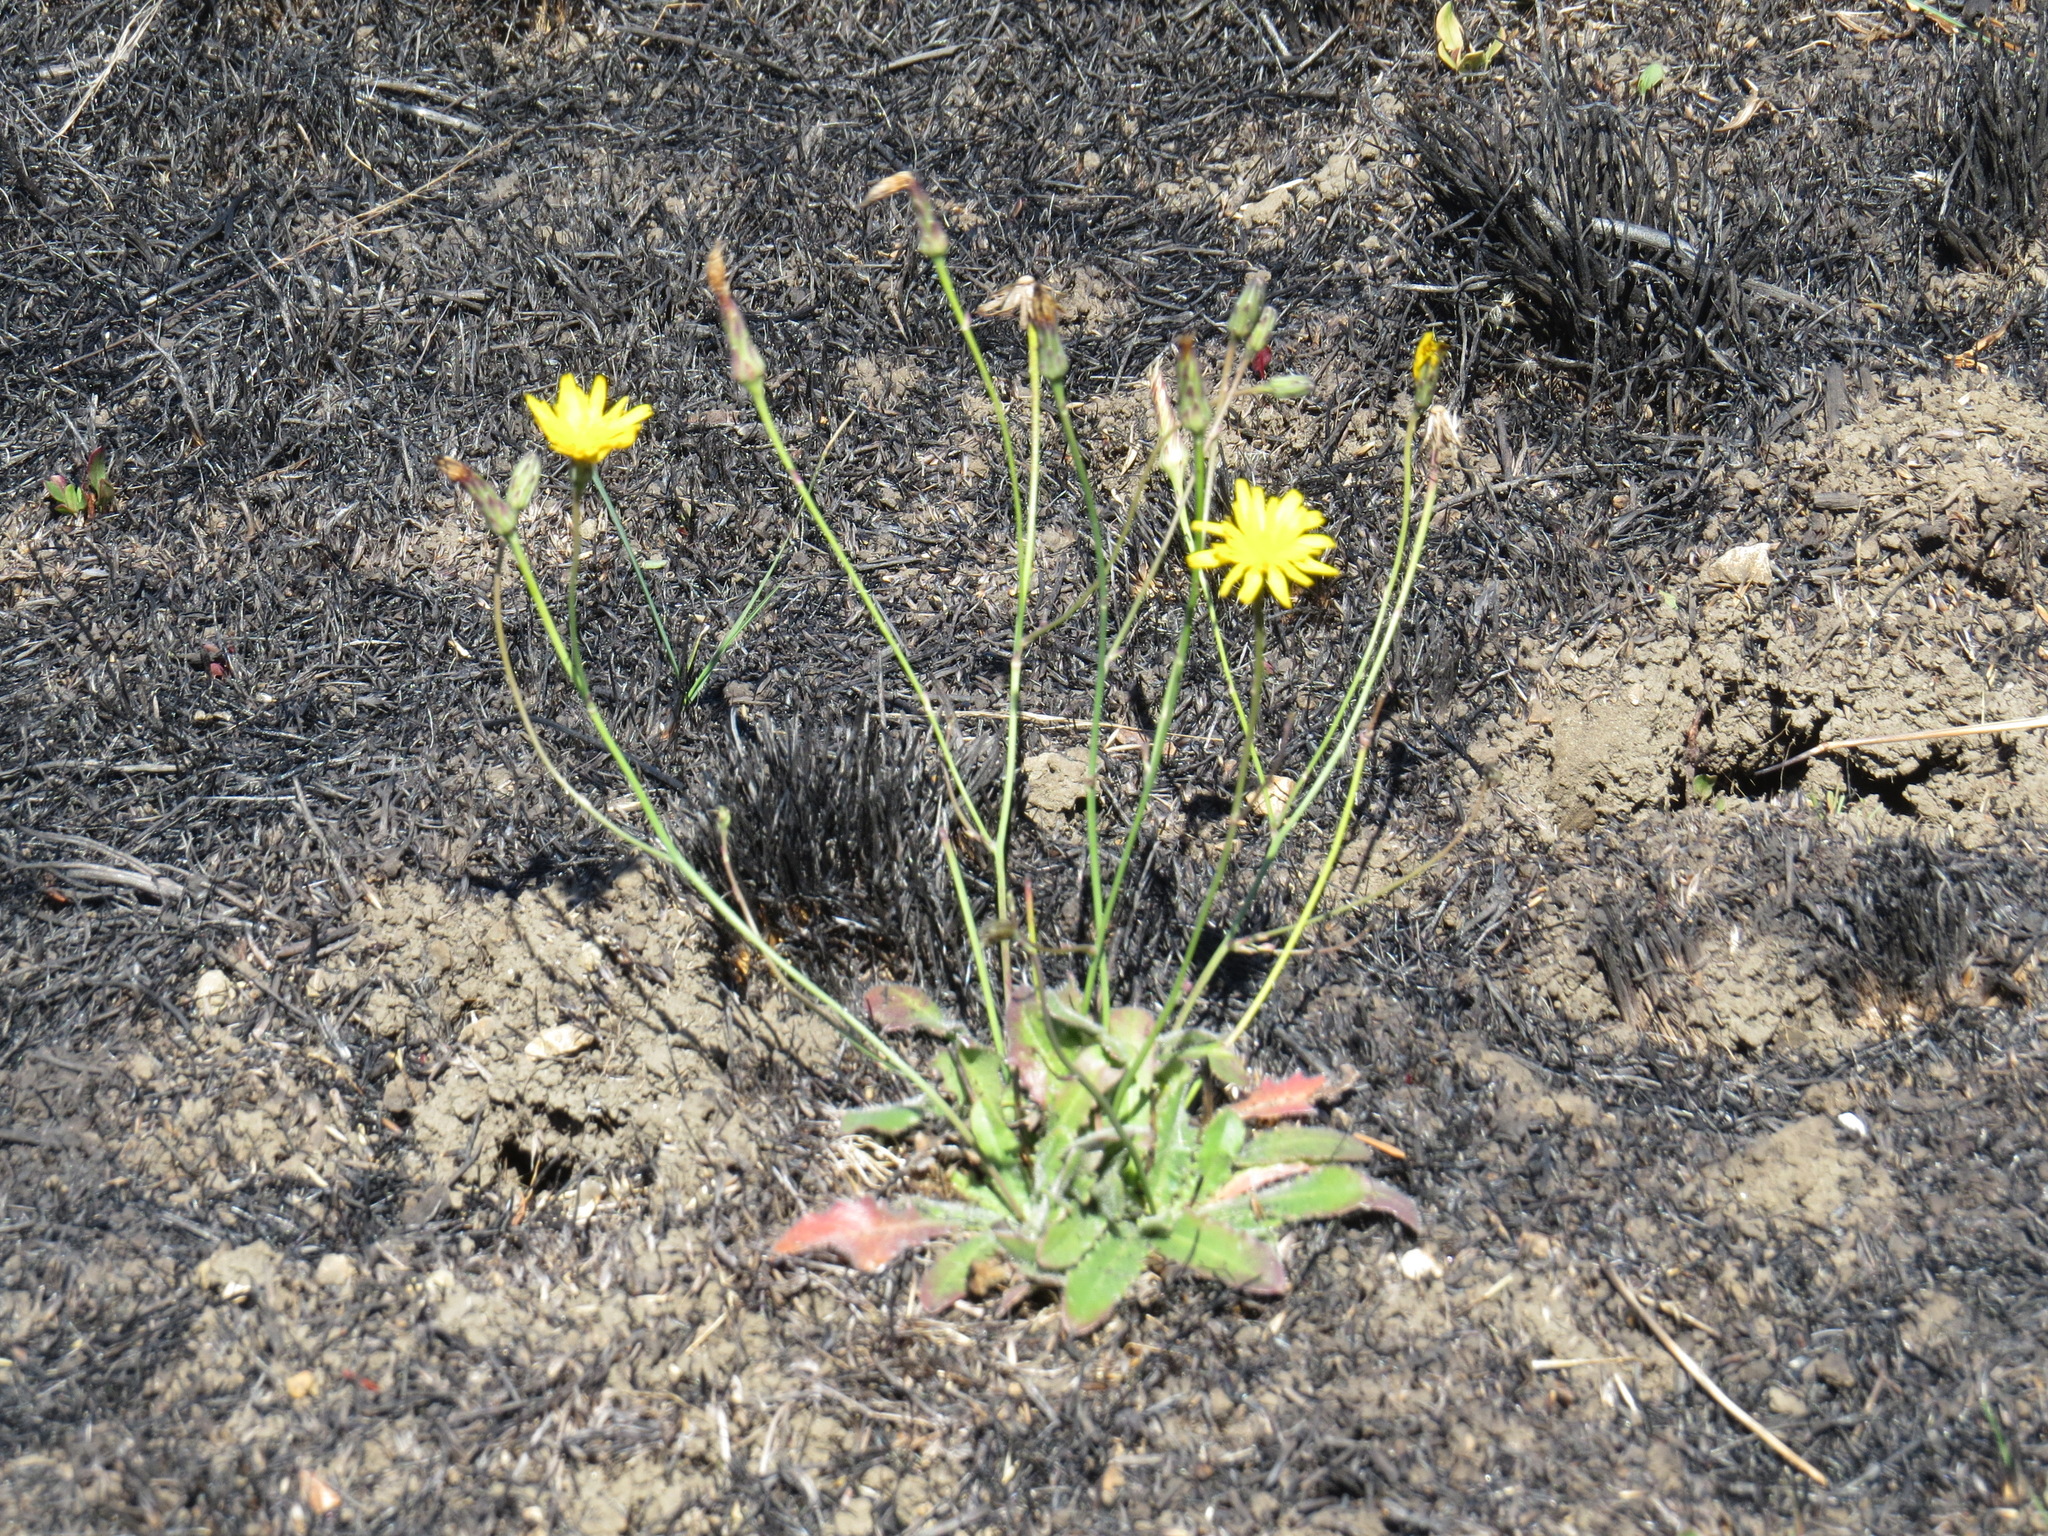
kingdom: Plantae
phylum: Tracheophyta
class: Magnoliopsida
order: Asterales
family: Asteraceae
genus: Hypochaeris
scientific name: Hypochaeris radicata
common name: Flatweed
